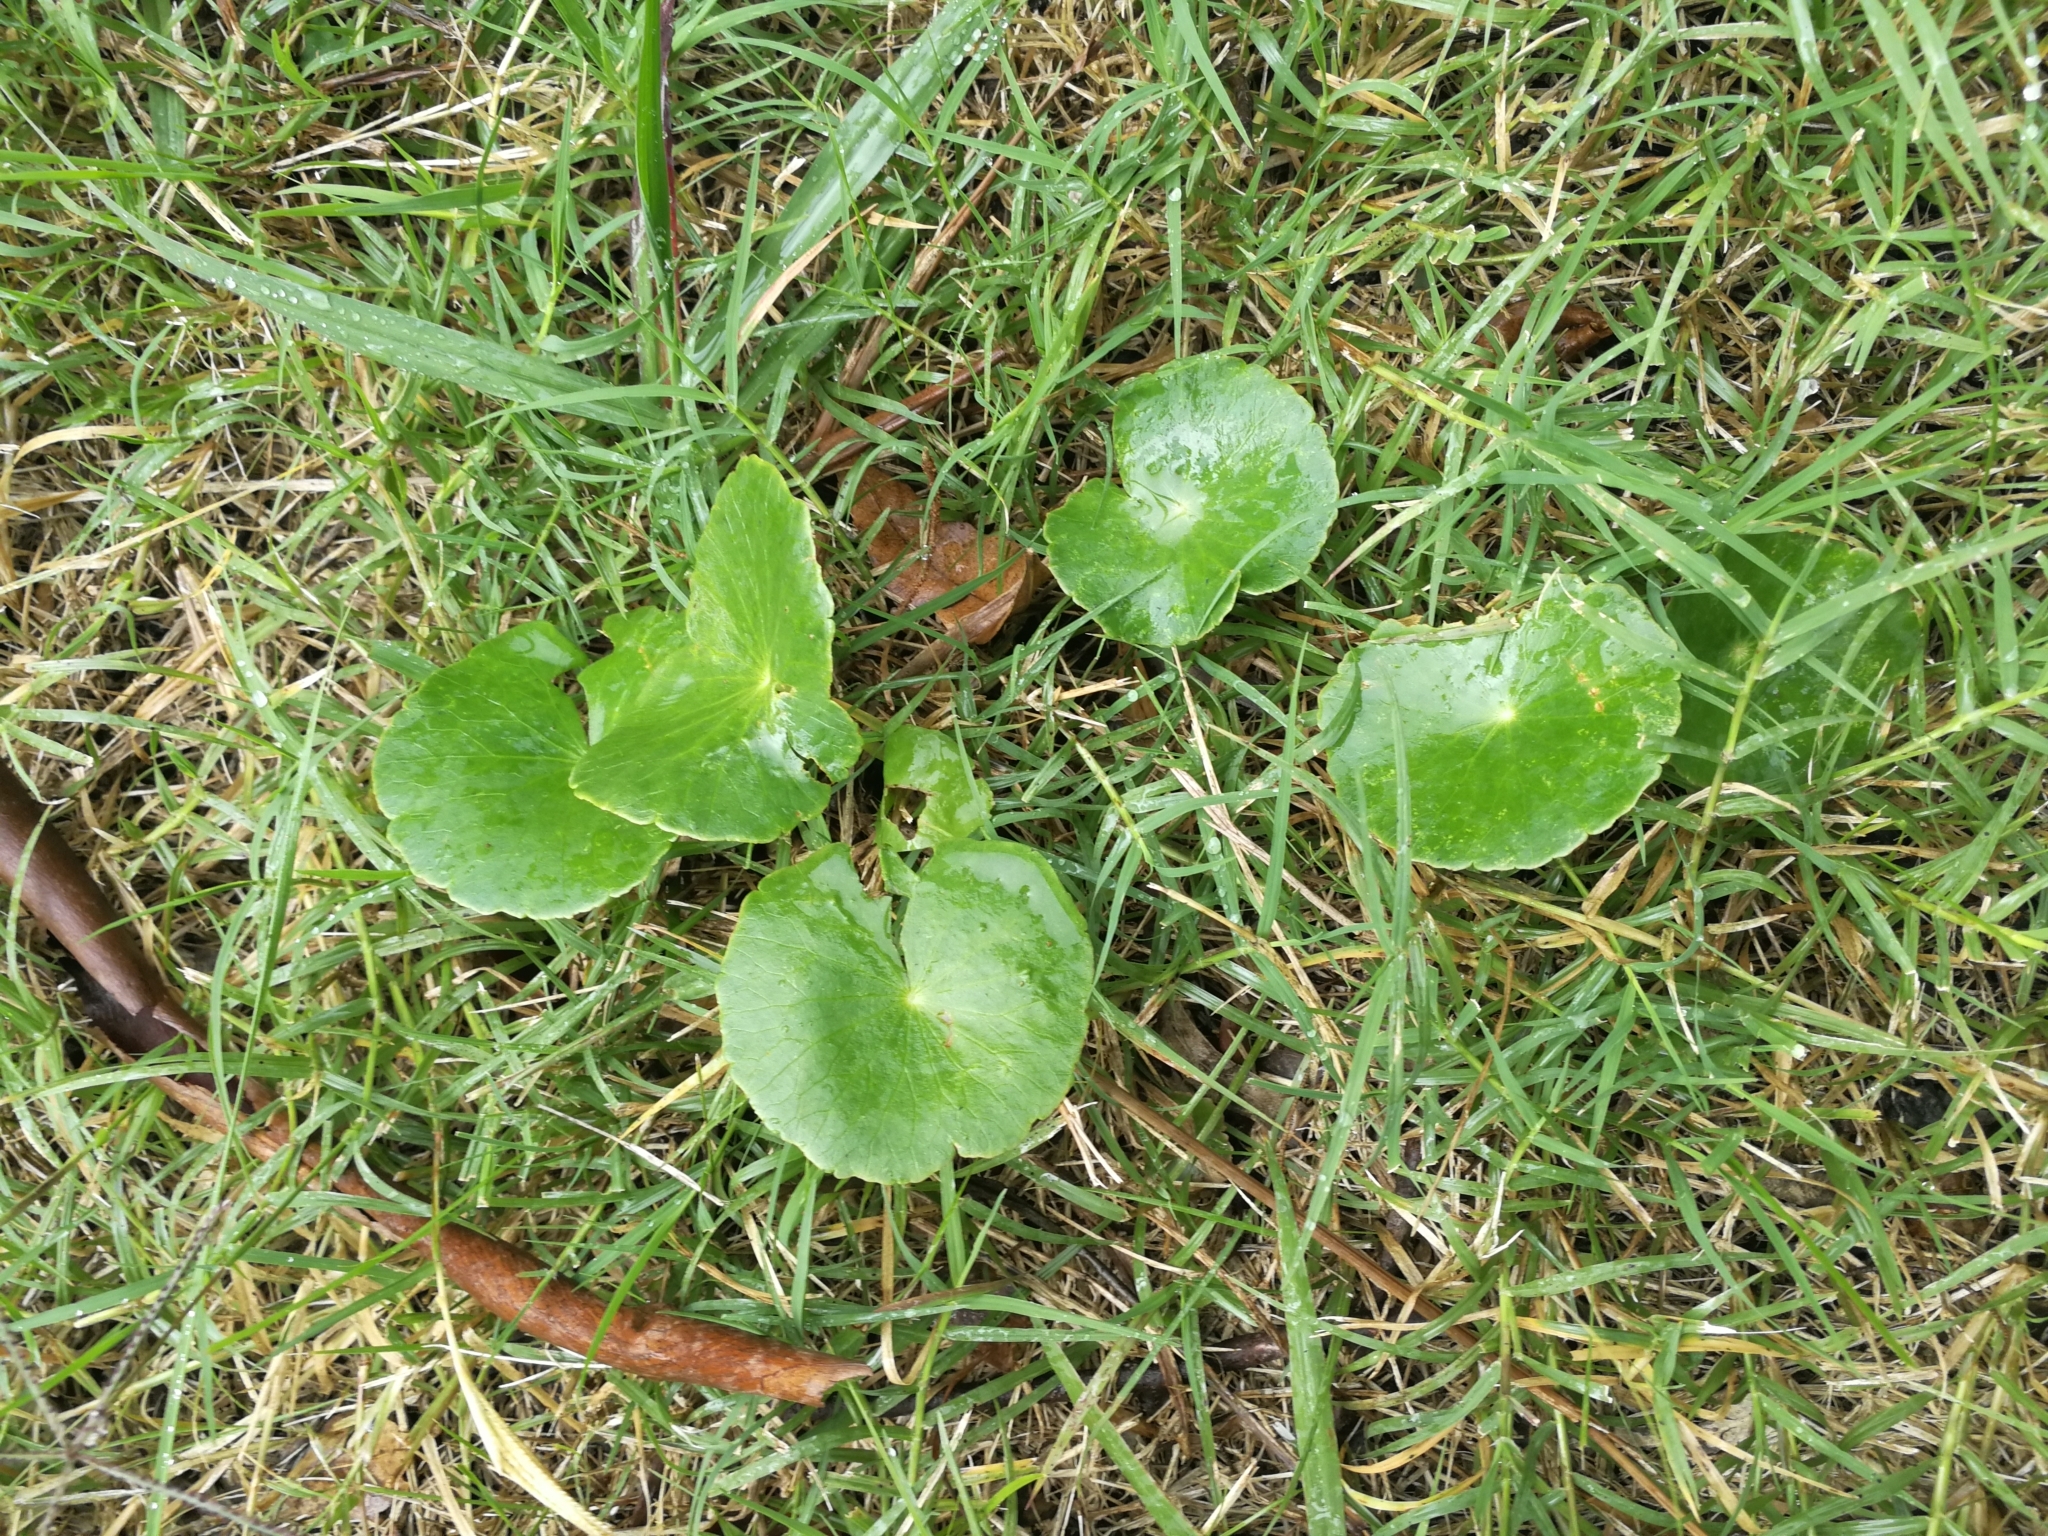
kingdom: Plantae
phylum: Tracheophyta
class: Magnoliopsida
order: Apiales
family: Araliaceae
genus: Hydrocotyle
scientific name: Hydrocotyle bonariensis
